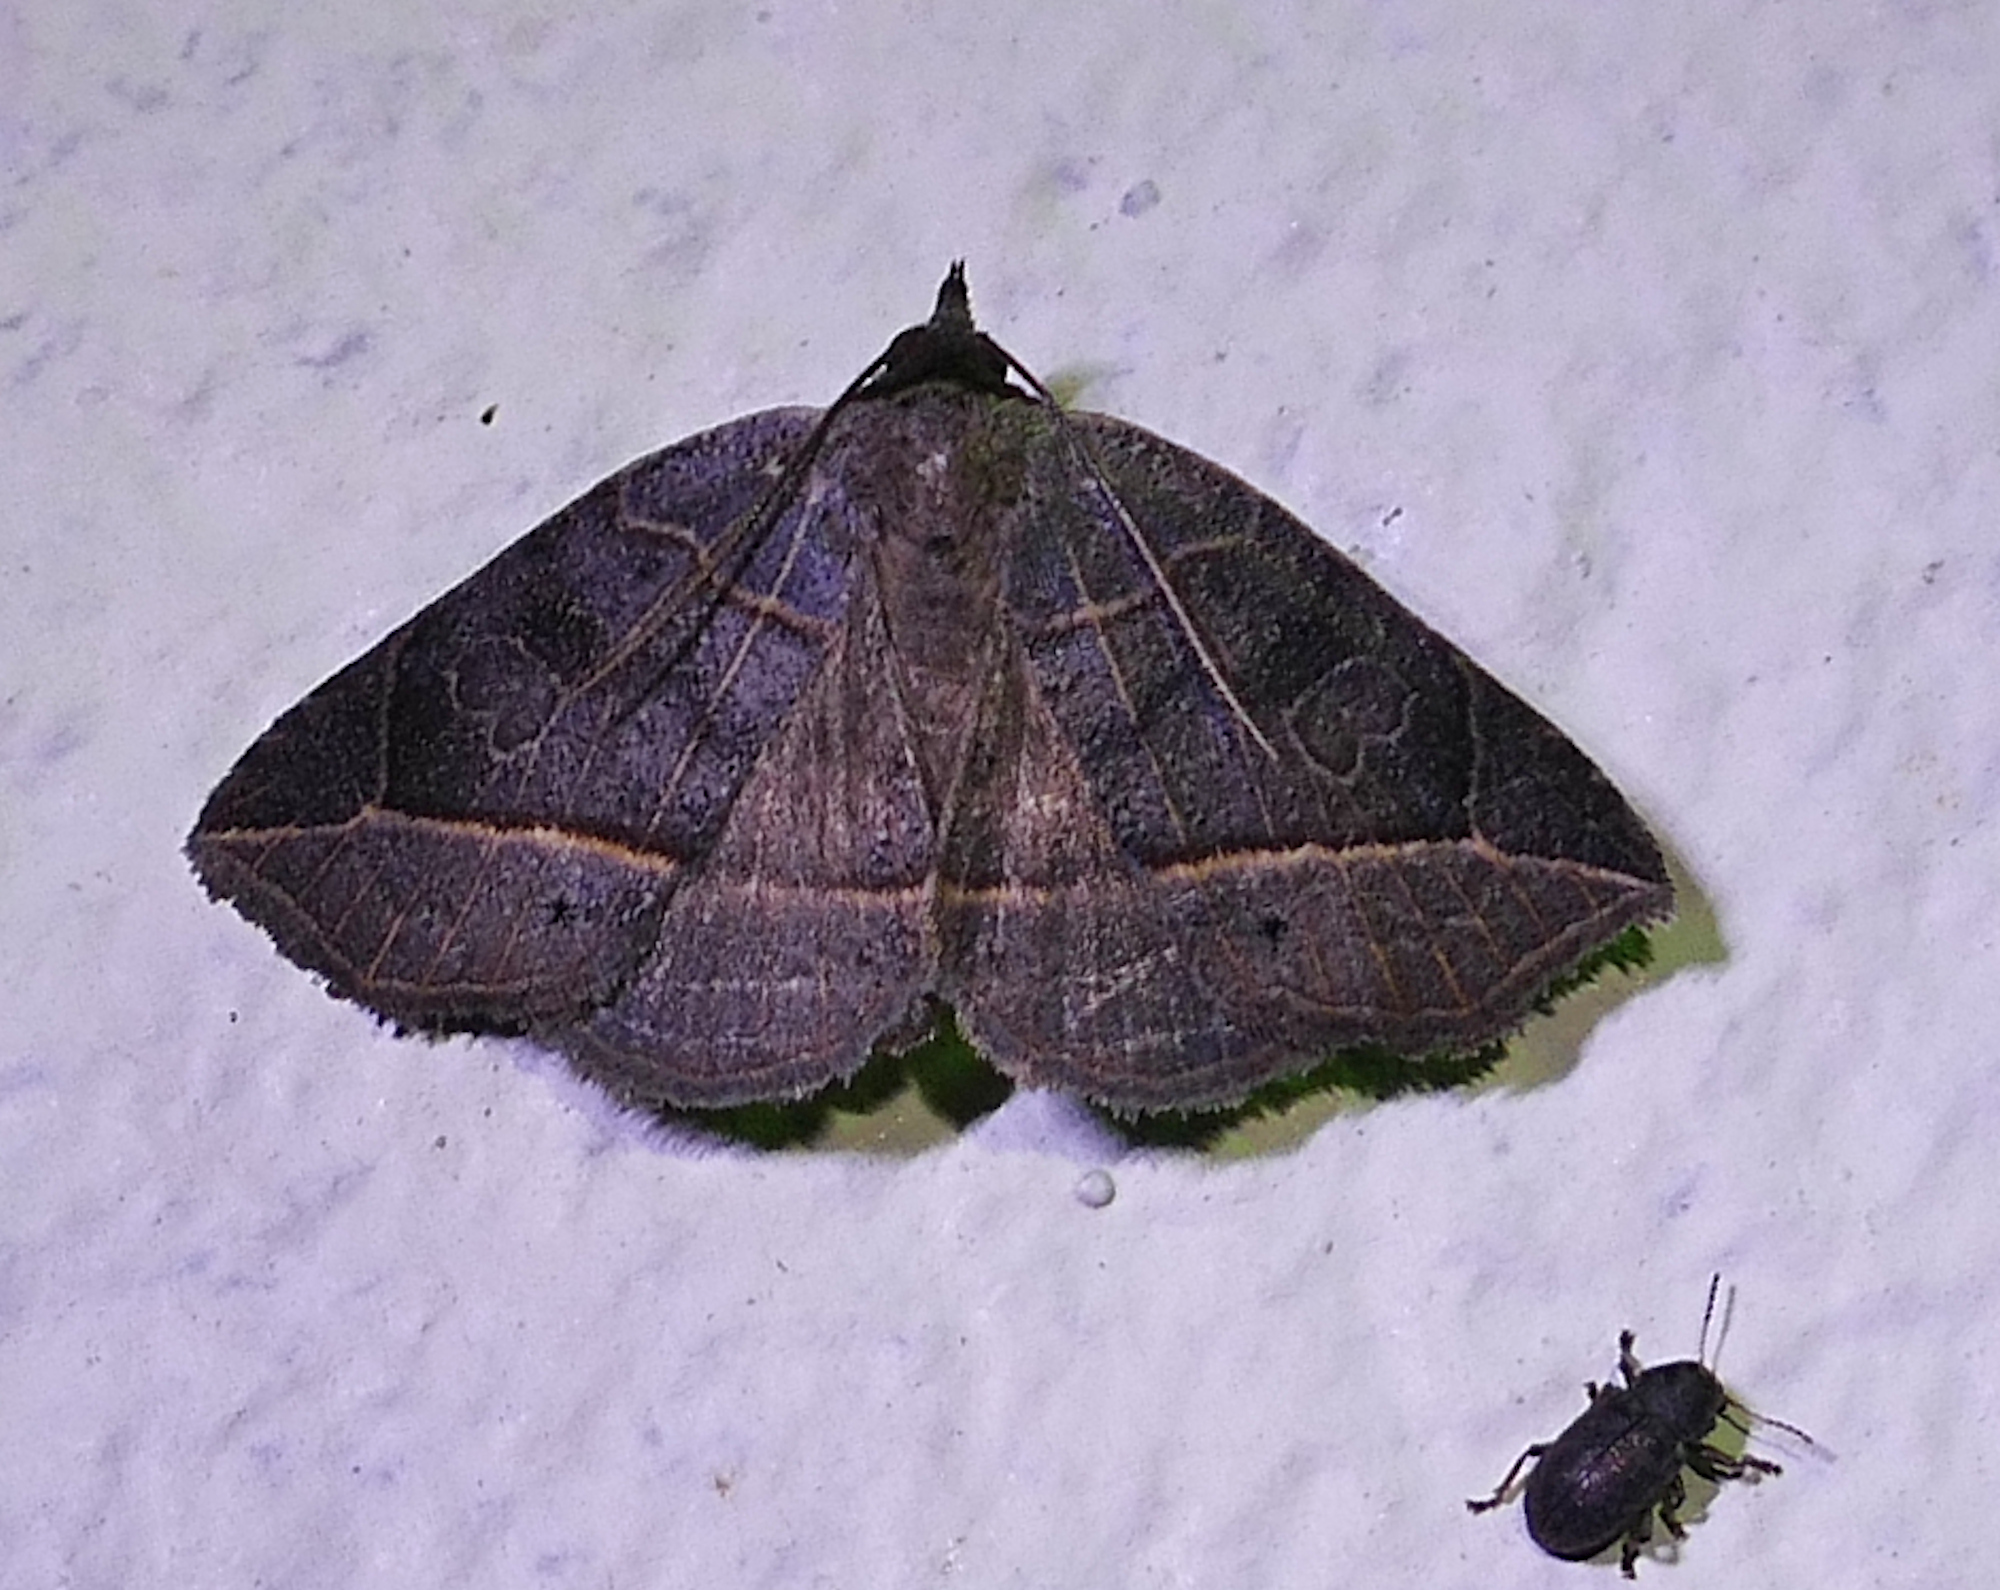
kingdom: Animalia
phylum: Arthropoda
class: Insecta
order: Lepidoptera
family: Erebidae
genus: Isogona
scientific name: Isogona tenuis
